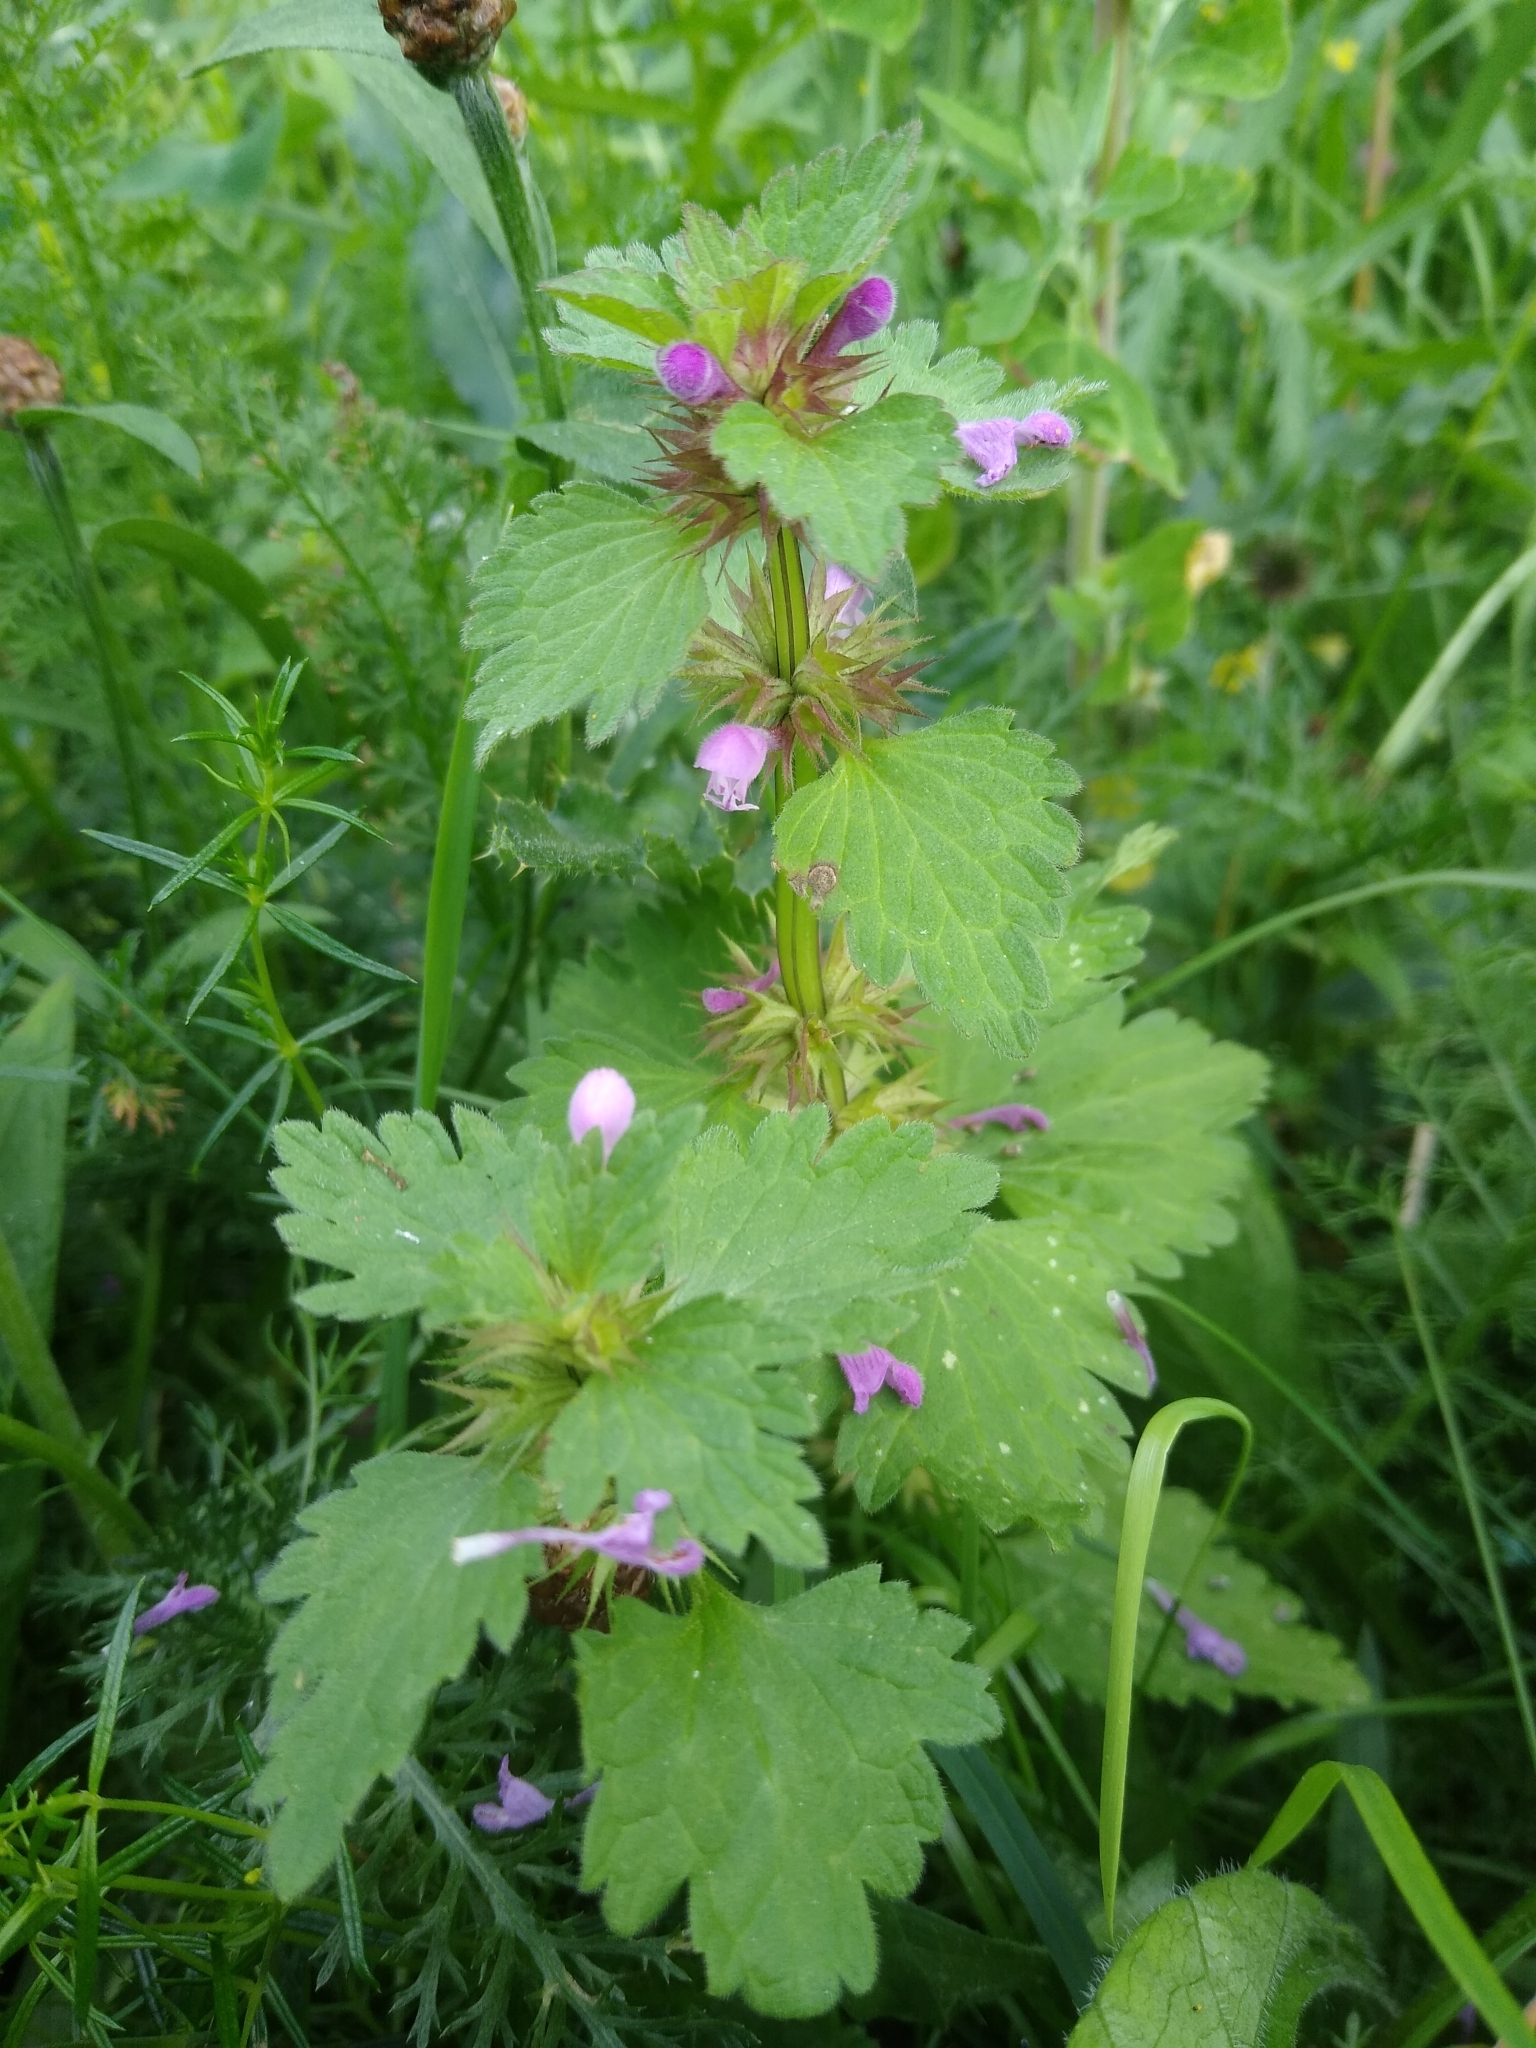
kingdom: Plantae
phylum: Tracheophyta
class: Magnoliopsida
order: Lamiales
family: Lamiaceae
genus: Lamium
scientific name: Lamium purpureum
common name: Red dead-nettle
